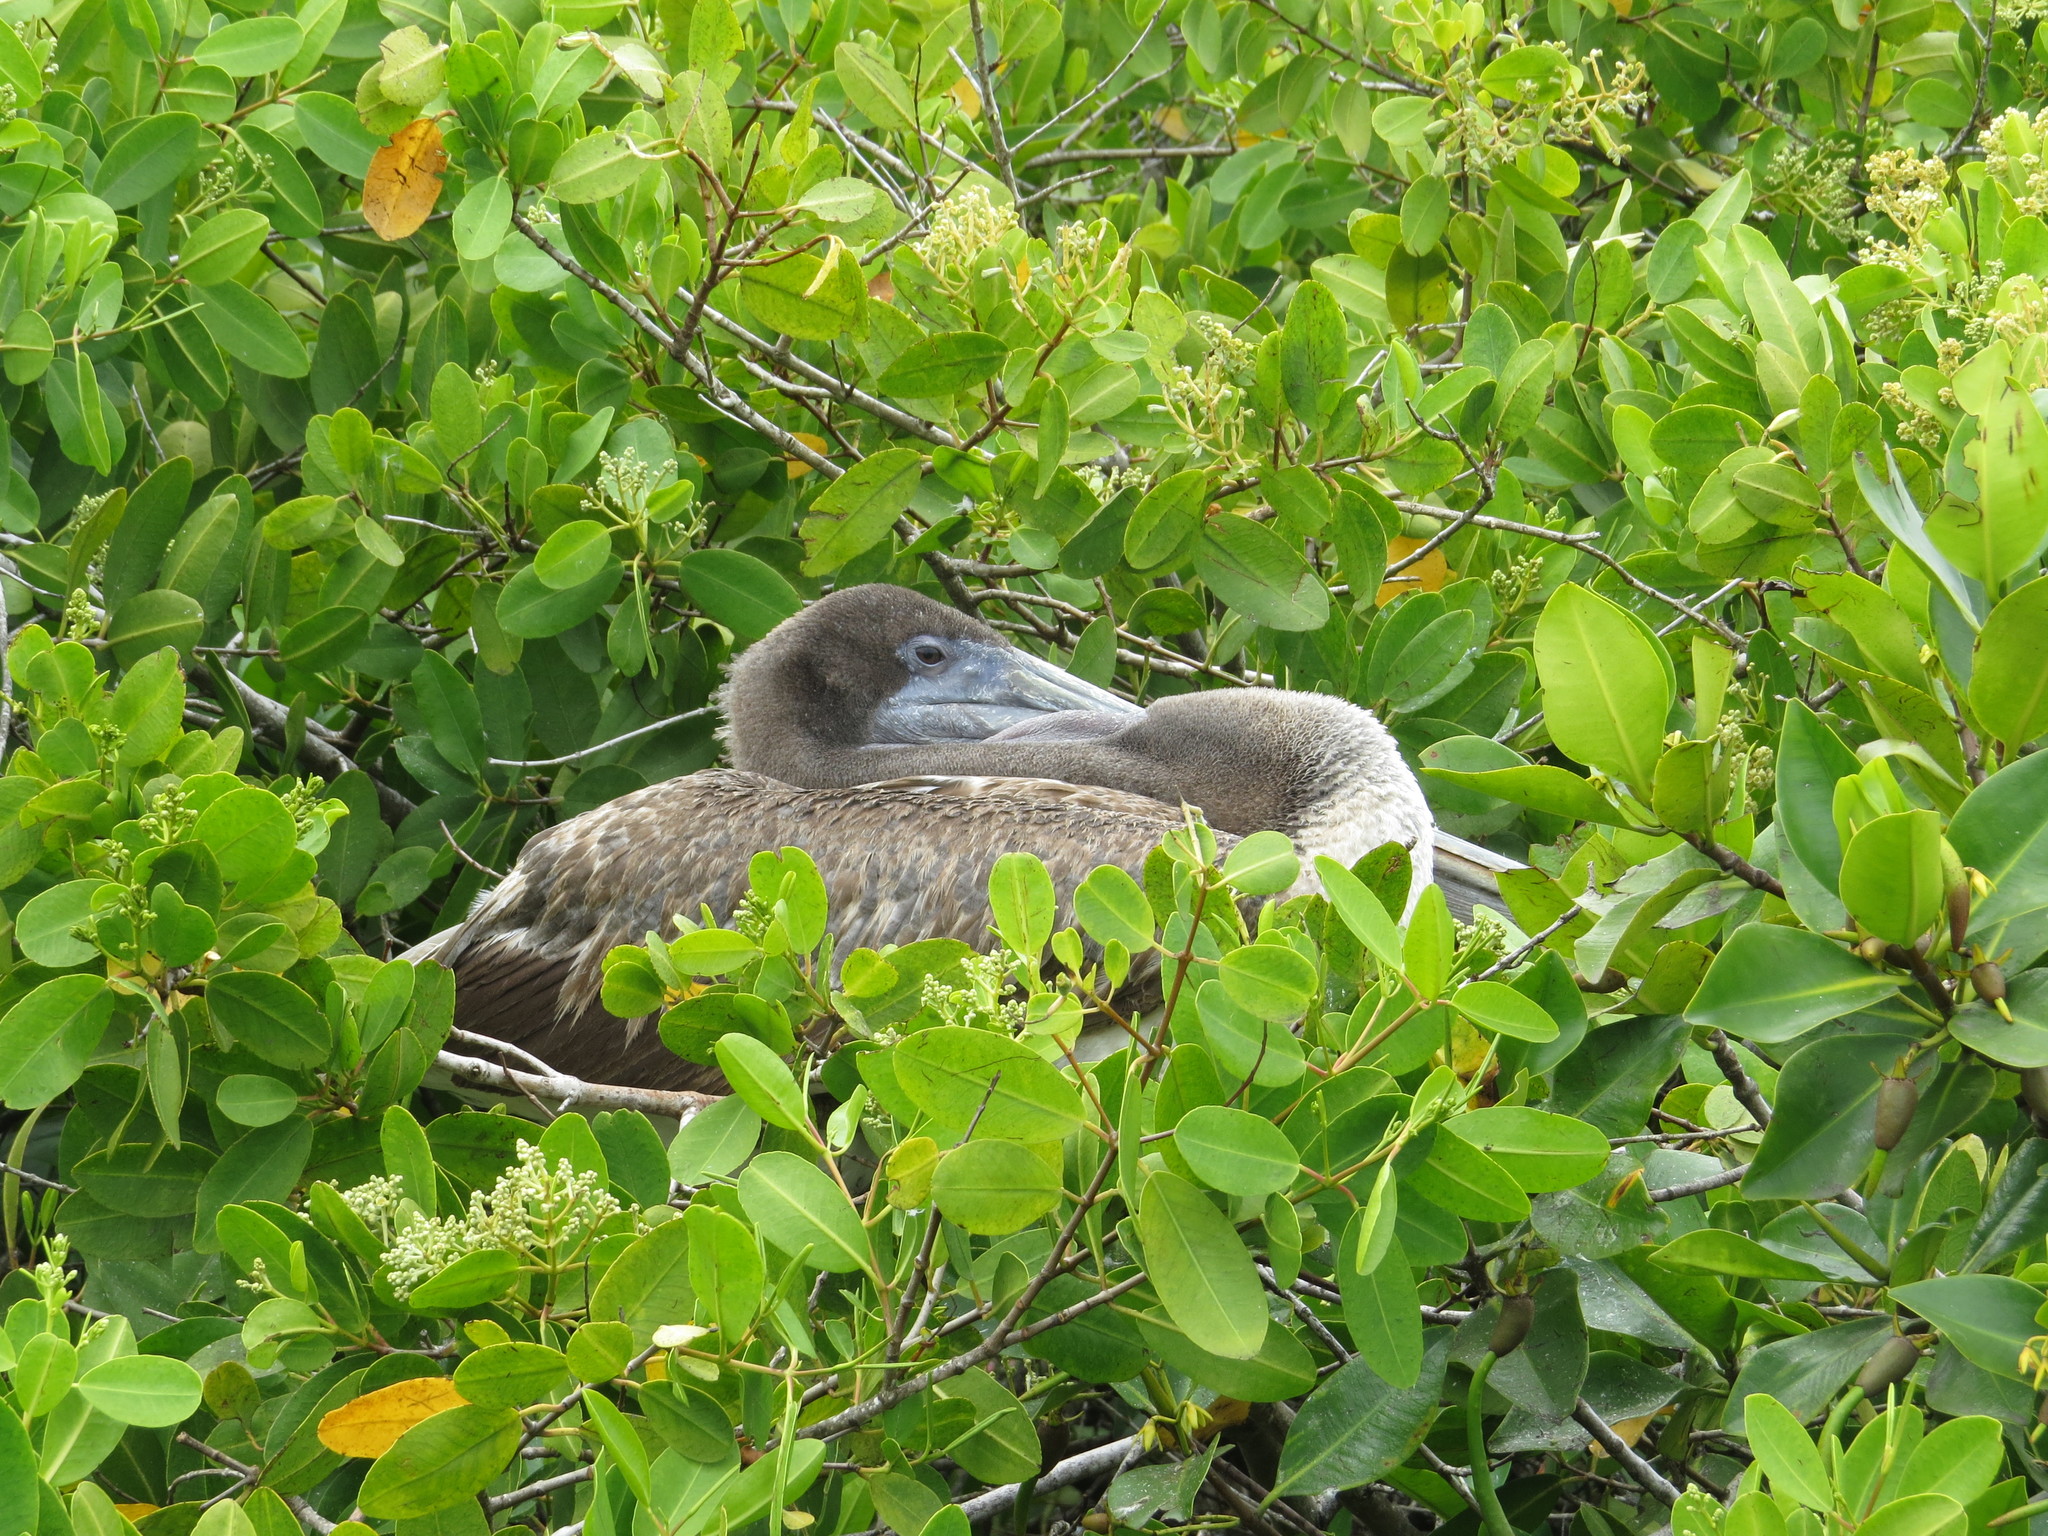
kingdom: Animalia
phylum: Chordata
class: Aves
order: Pelecaniformes
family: Pelecanidae
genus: Pelecanus
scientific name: Pelecanus occidentalis
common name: Brown pelican
